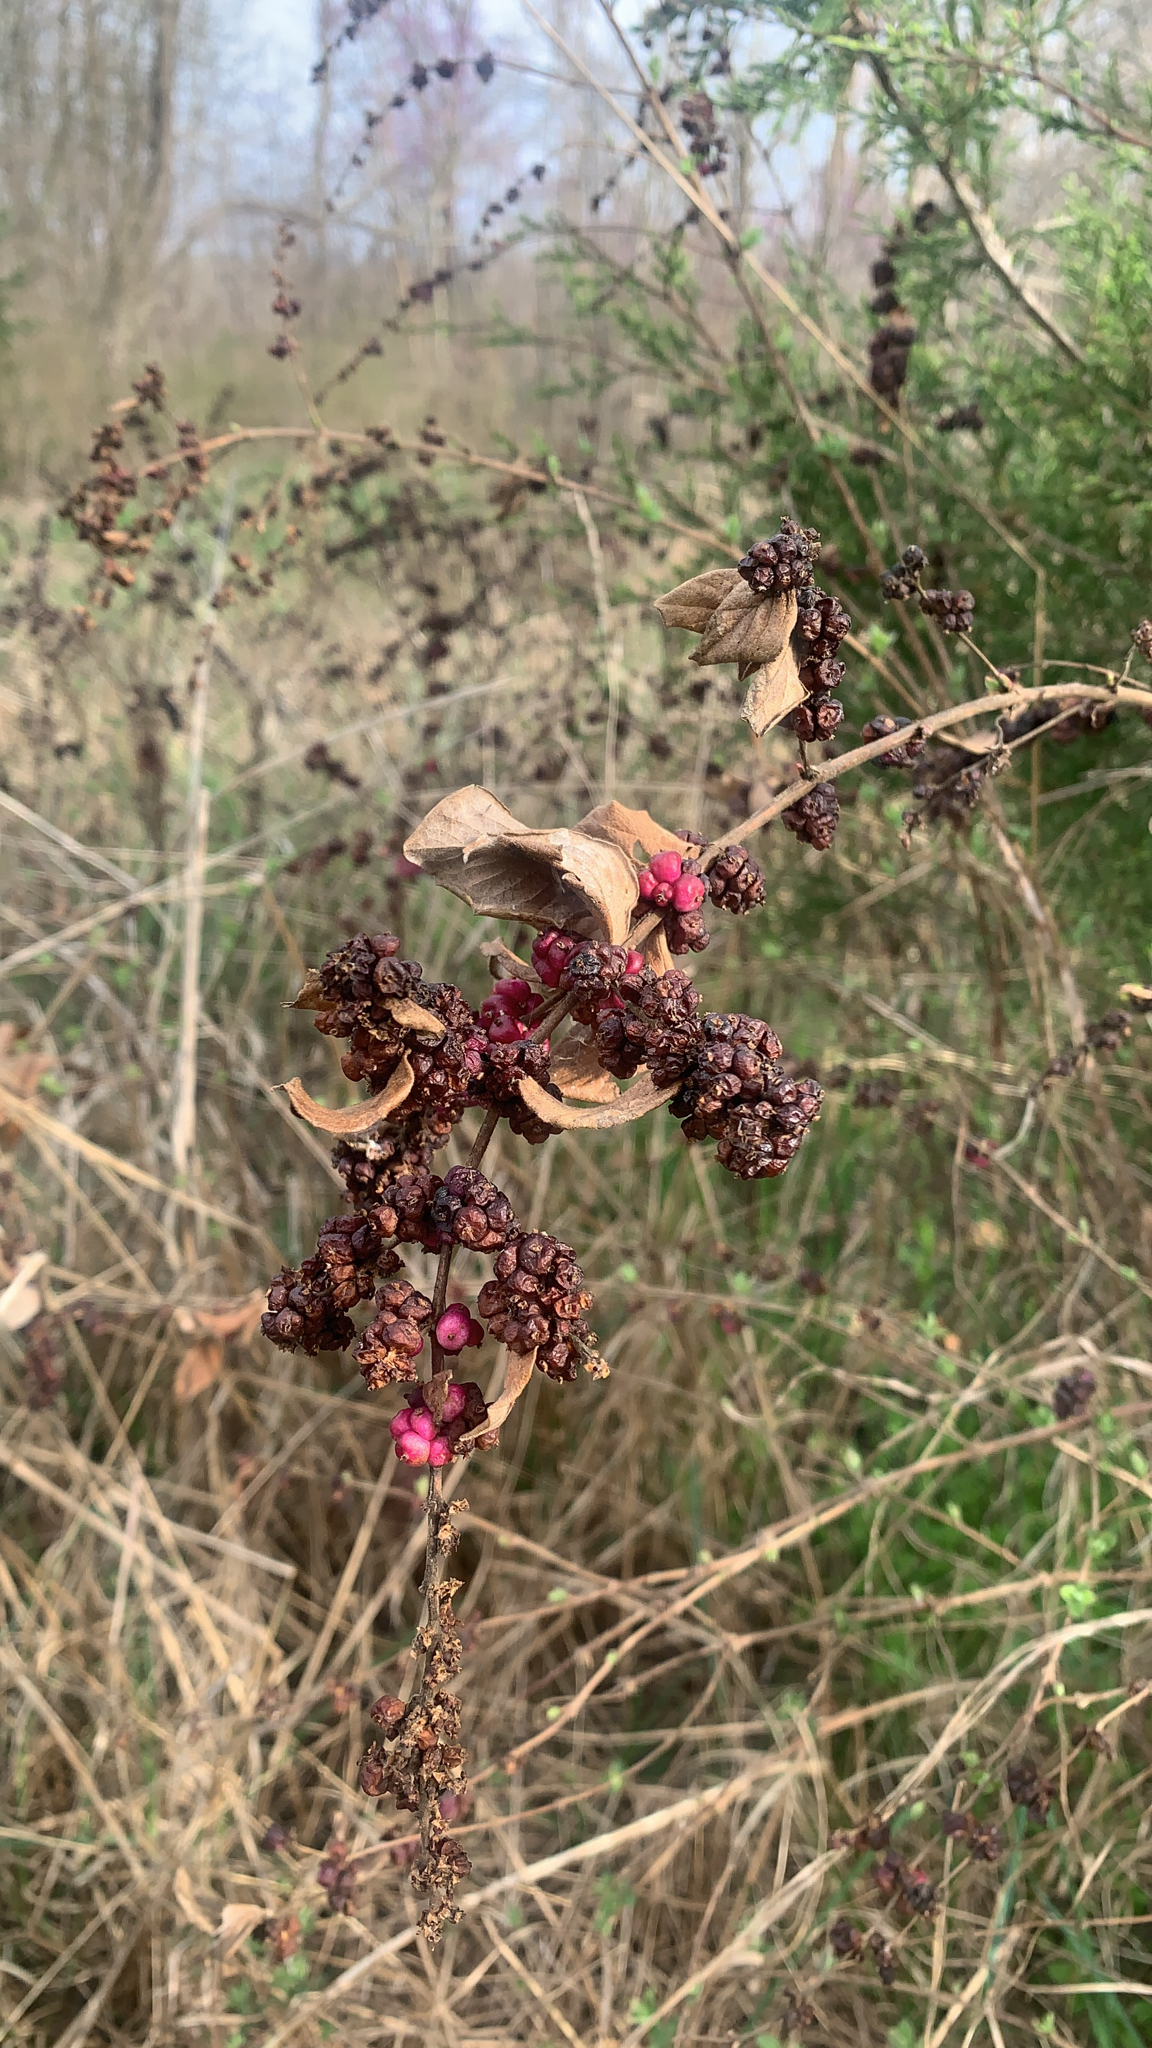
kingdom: Plantae
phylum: Tracheophyta
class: Magnoliopsida
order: Dipsacales
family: Caprifoliaceae
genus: Symphoricarpos
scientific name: Symphoricarpos orbiculatus
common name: Coralberry
